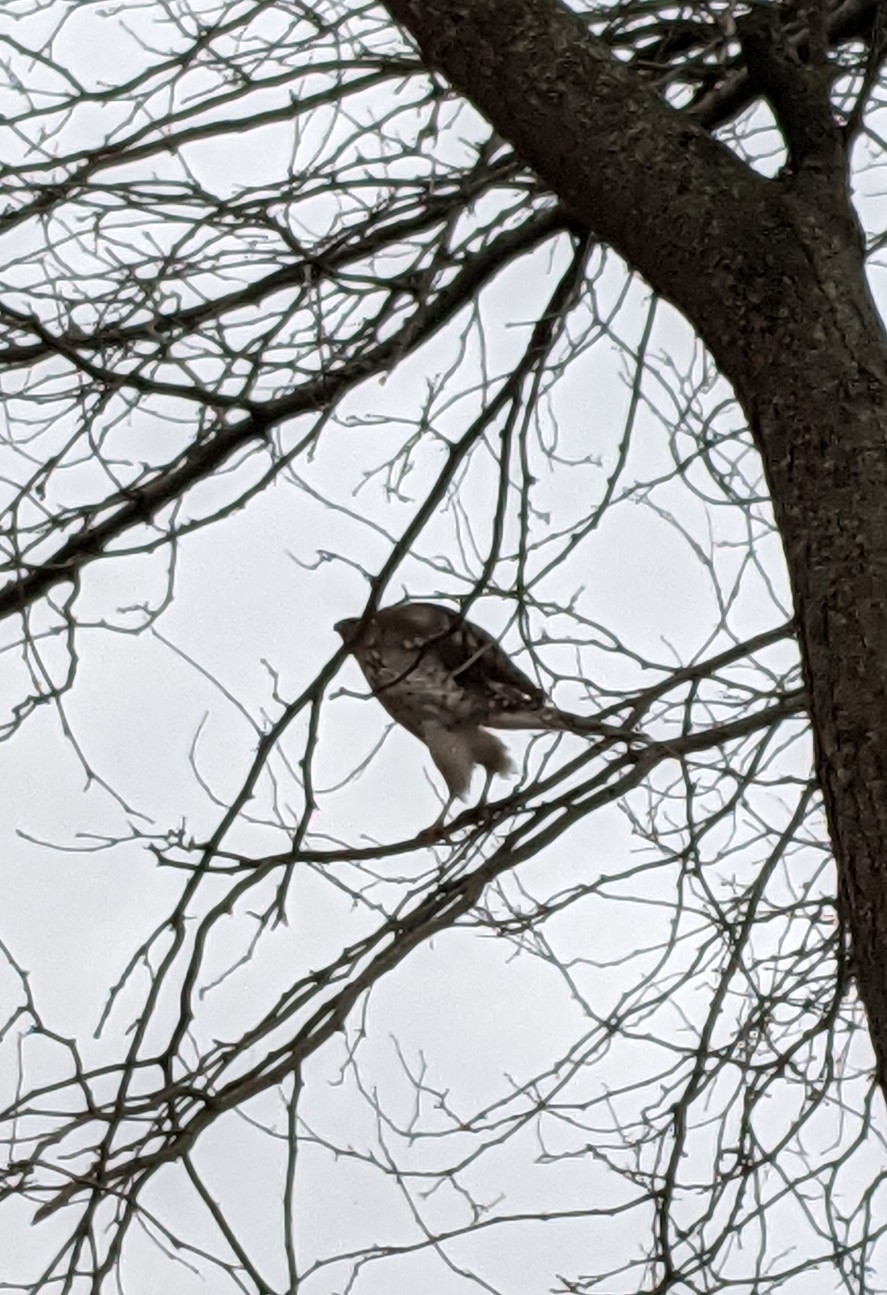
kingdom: Animalia
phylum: Chordata
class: Aves
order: Accipitriformes
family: Accipitridae
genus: Accipiter
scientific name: Accipiter cooperii
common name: Cooper's hawk
